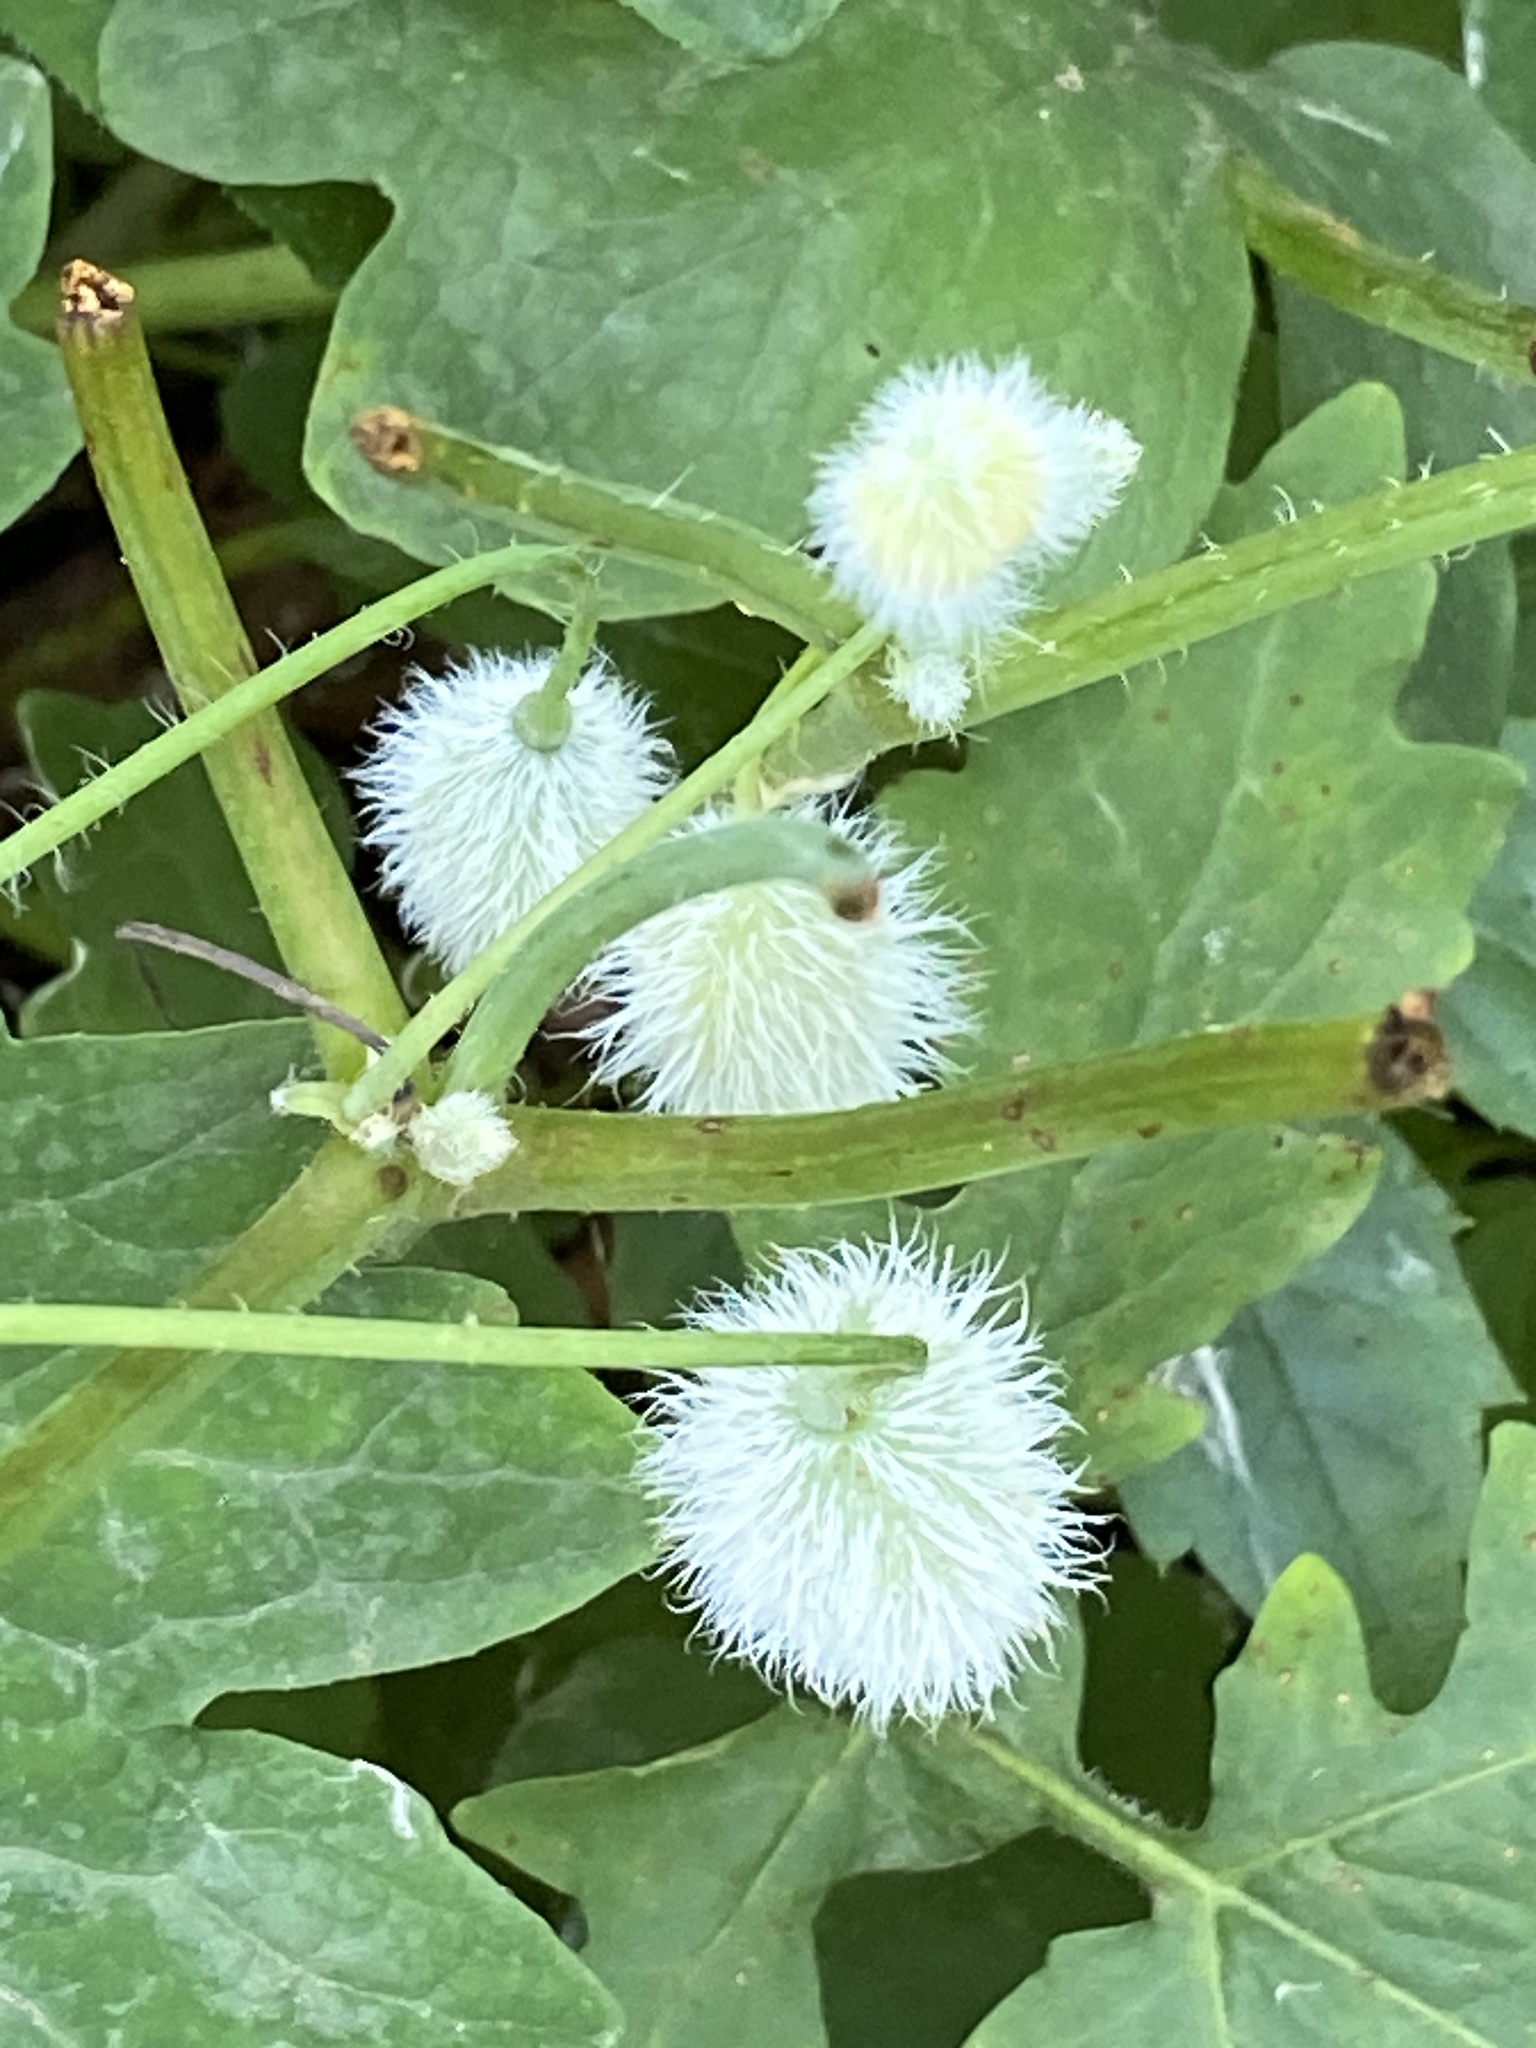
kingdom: Plantae
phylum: Tracheophyta
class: Magnoliopsida
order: Ranunculales
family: Papaveraceae
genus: Stylophorum
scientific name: Stylophorum diphyllum
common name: Celandine poppy
